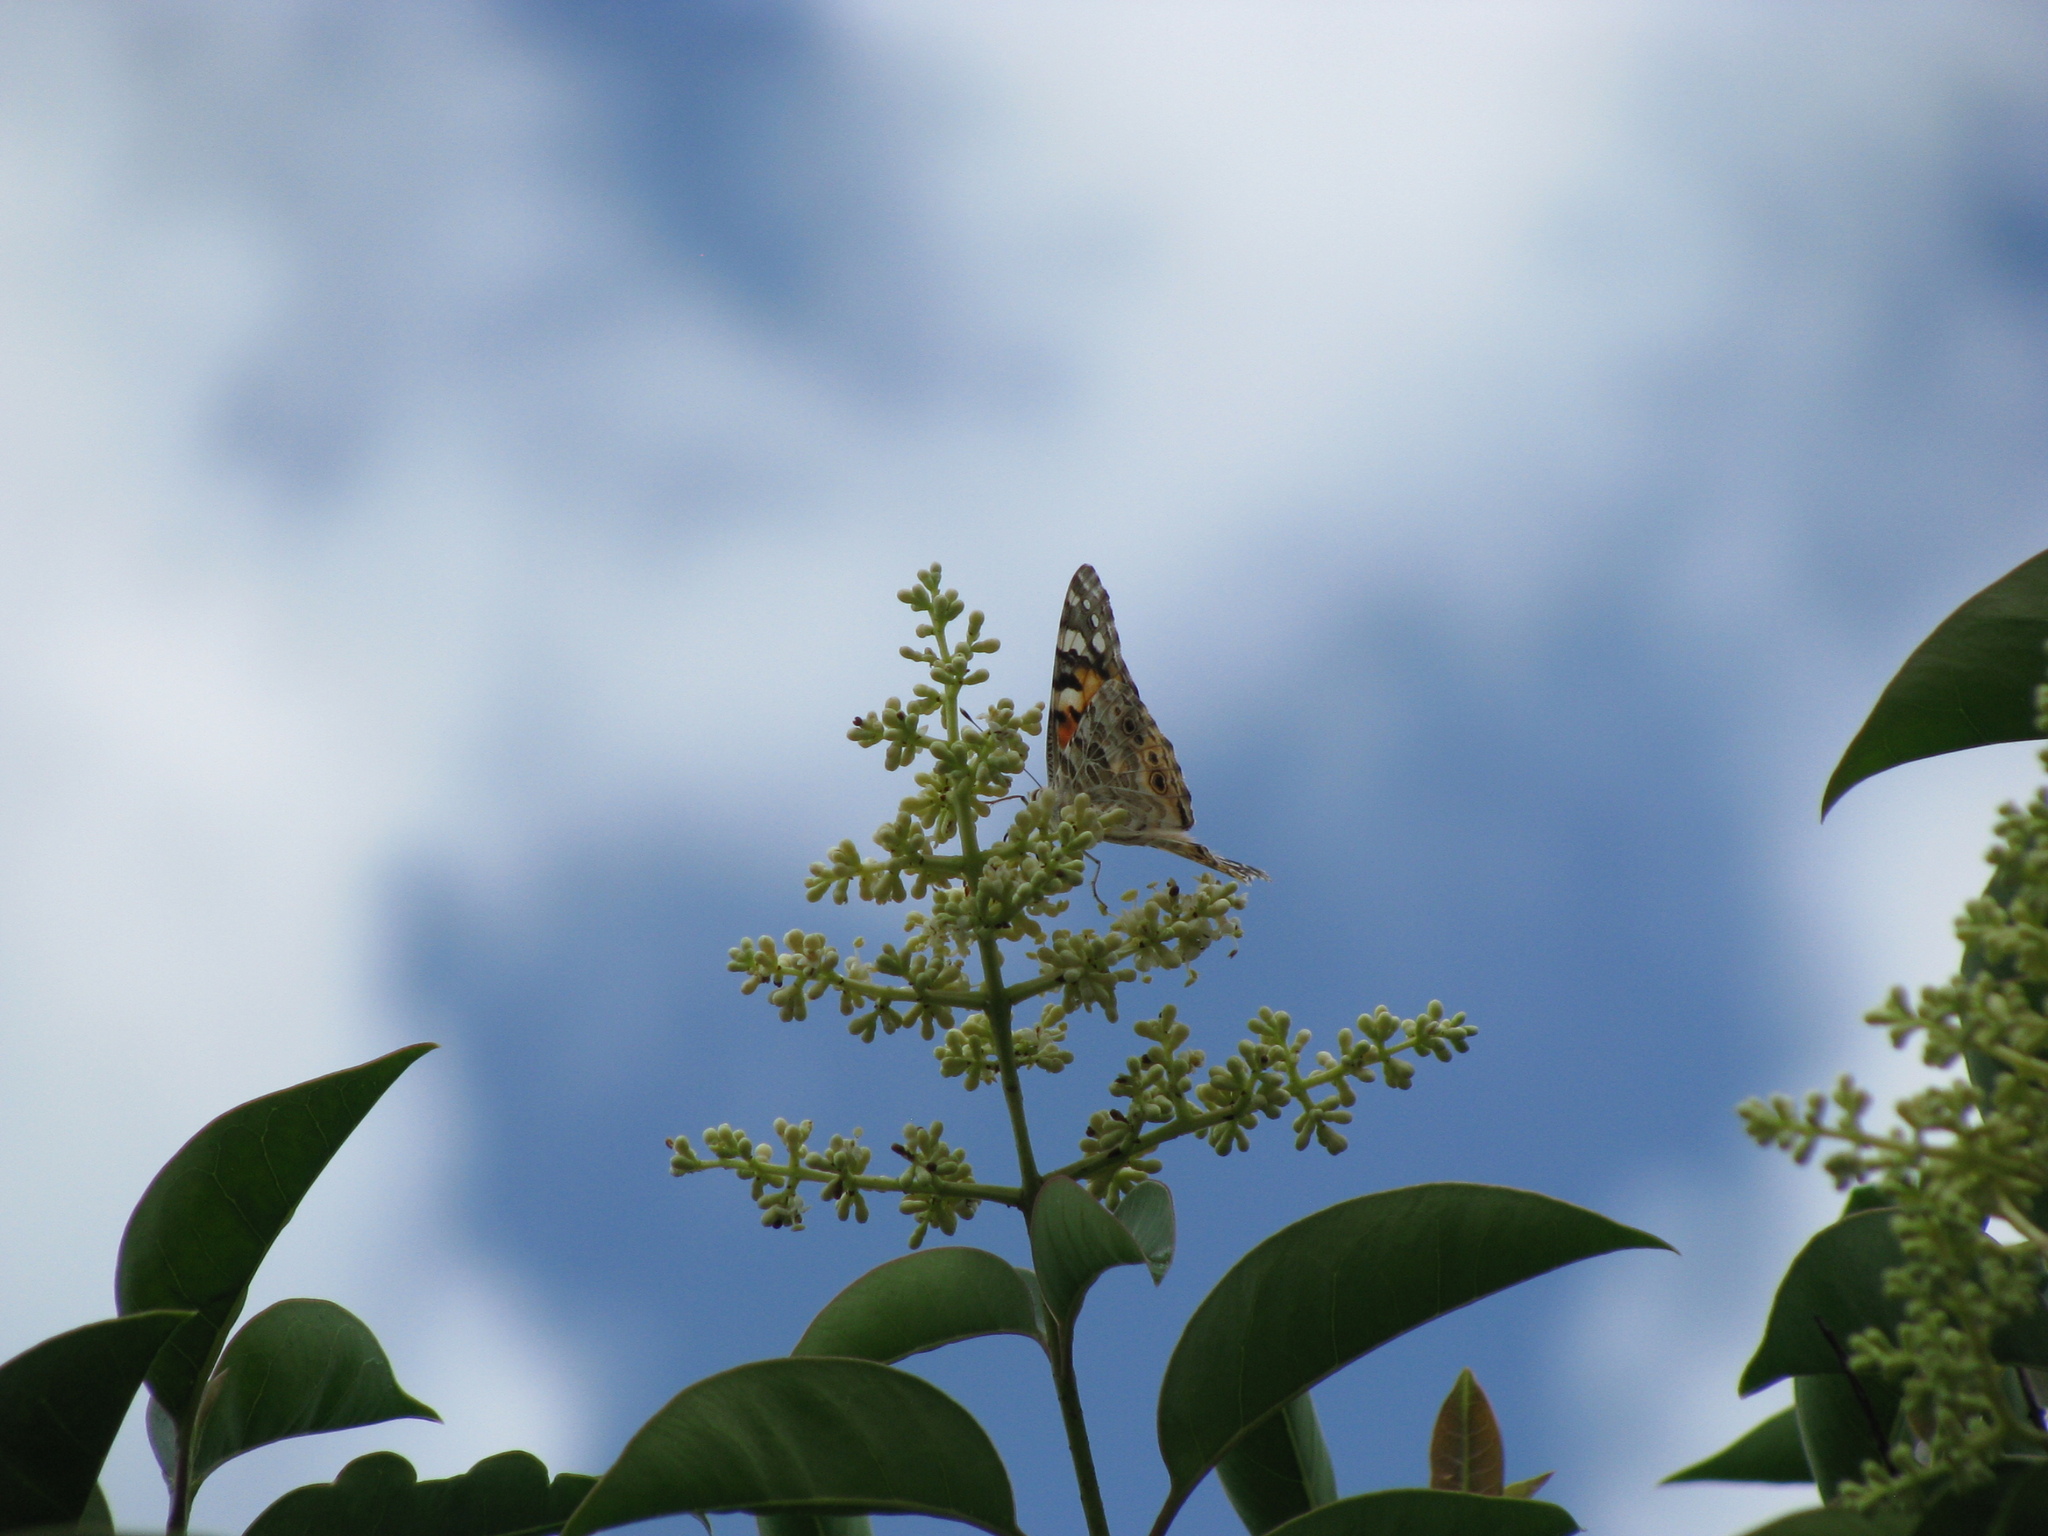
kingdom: Animalia
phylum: Arthropoda
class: Insecta
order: Lepidoptera
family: Nymphalidae
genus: Vanessa
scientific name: Vanessa cardui
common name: Painted lady
